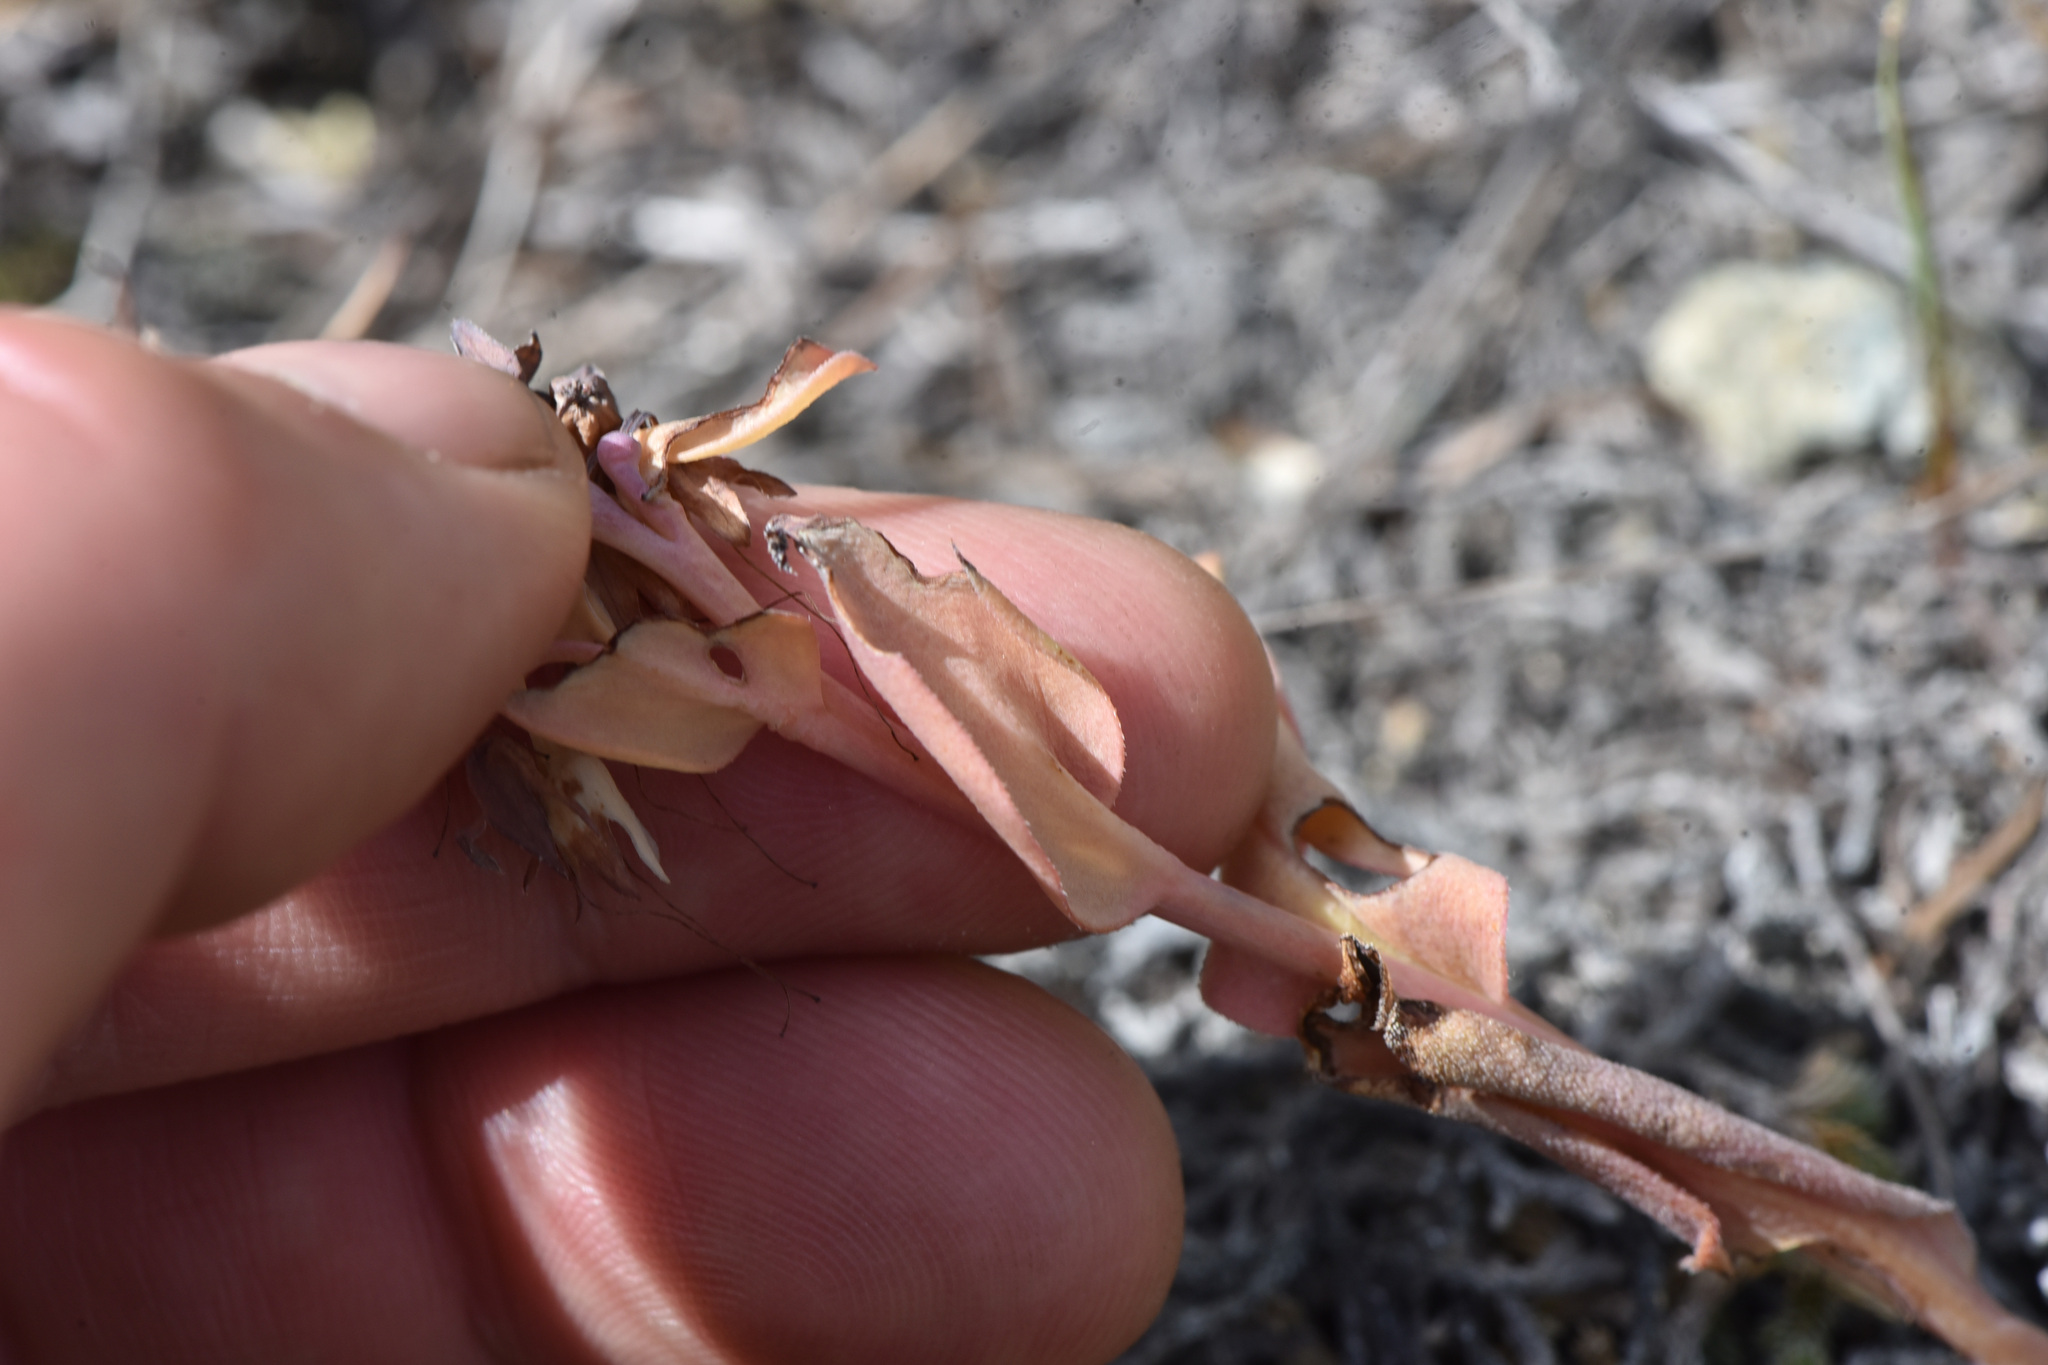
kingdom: Plantae
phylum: Tracheophyta
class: Magnoliopsida
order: Boraginales
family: Boraginaceae
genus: Mertensia
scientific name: Mertensia longiflora
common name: Large-flowered bluebells
